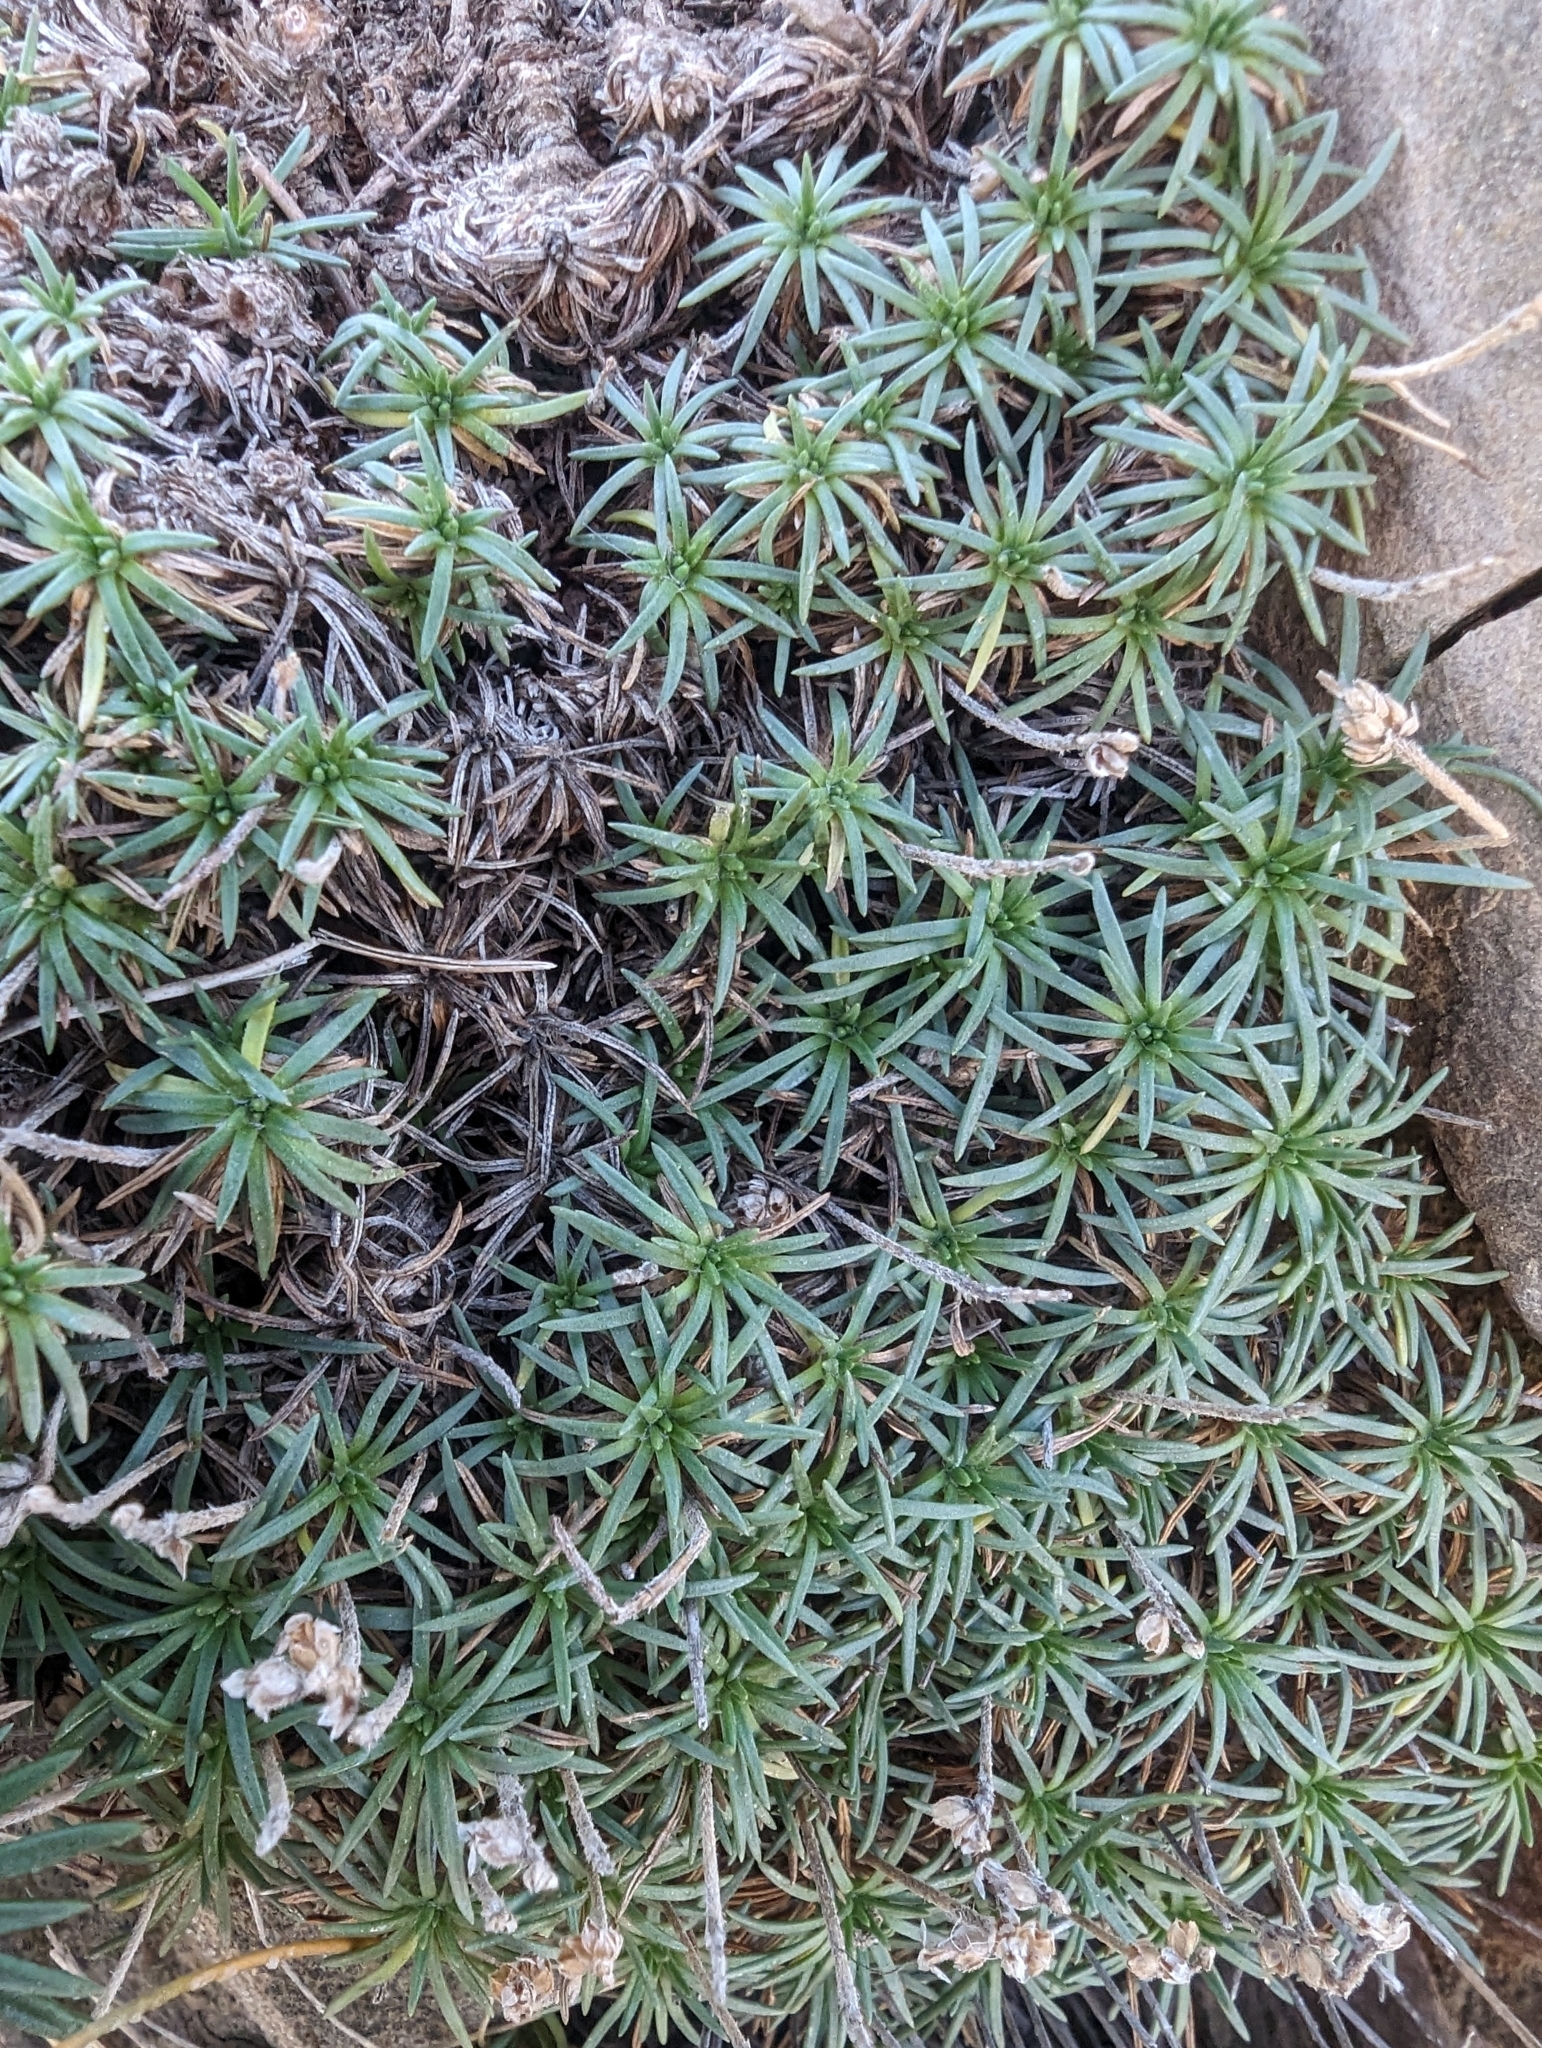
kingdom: Plantae
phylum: Tracheophyta
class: Magnoliopsida
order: Lamiales
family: Plantaginaceae
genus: Plantago
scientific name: Plantago subulata
